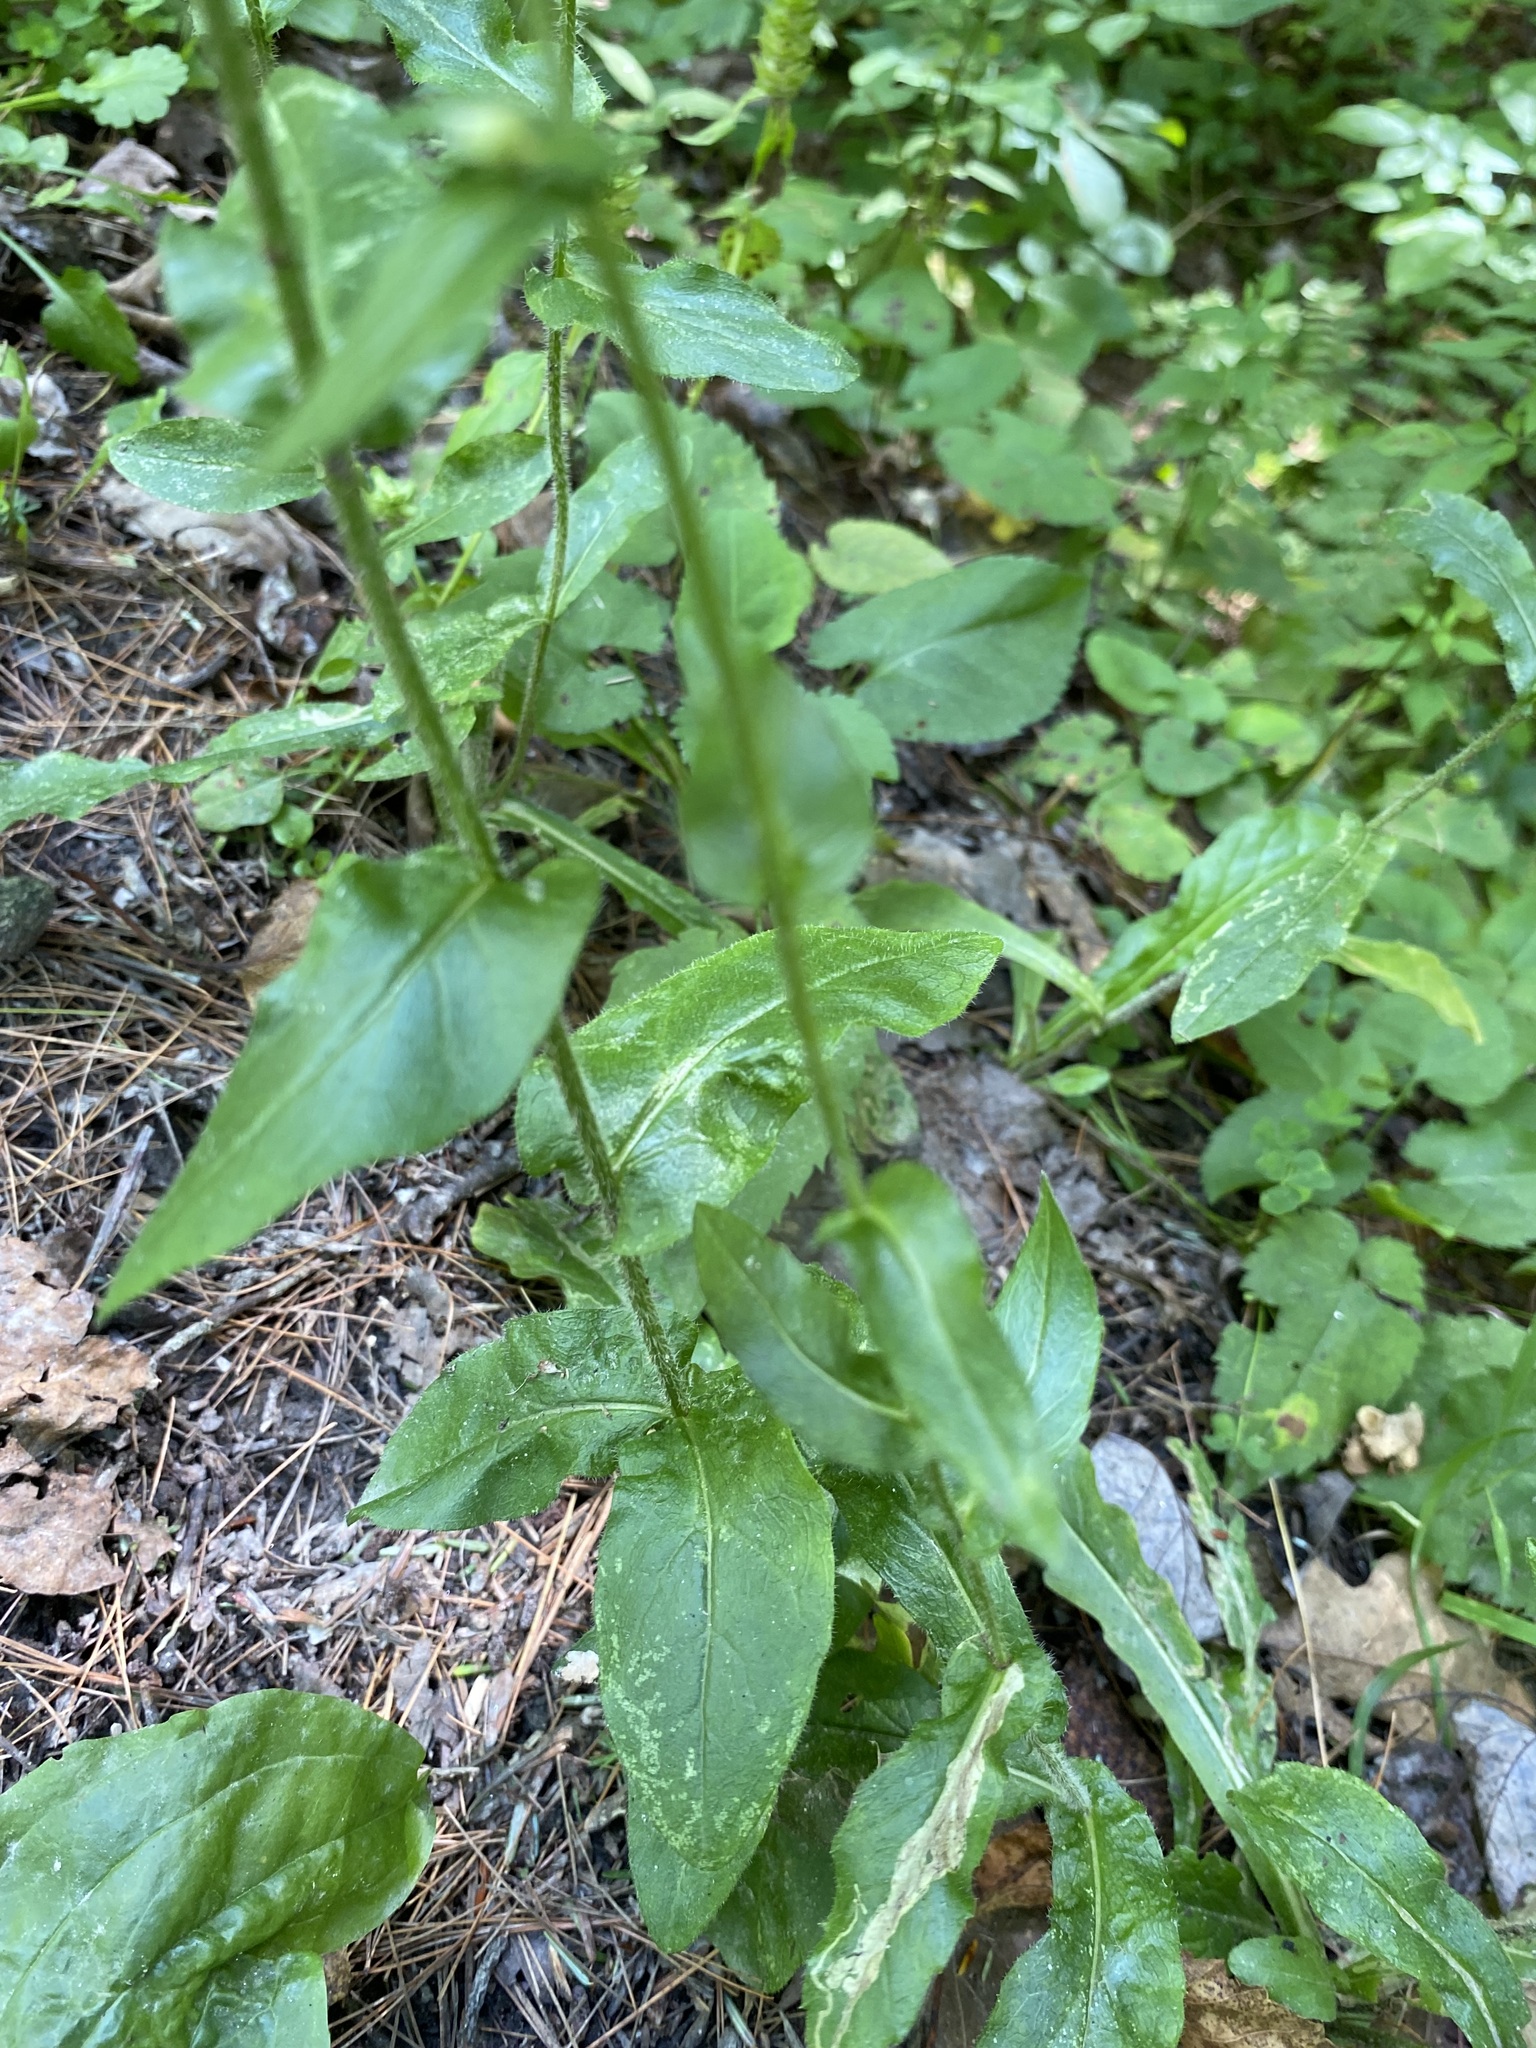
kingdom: Plantae
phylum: Tracheophyta
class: Magnoliopsida
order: Asterales
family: Asteraceae
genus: Erigeron
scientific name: Erigeron philadelphicus
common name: Robin's-plantain
